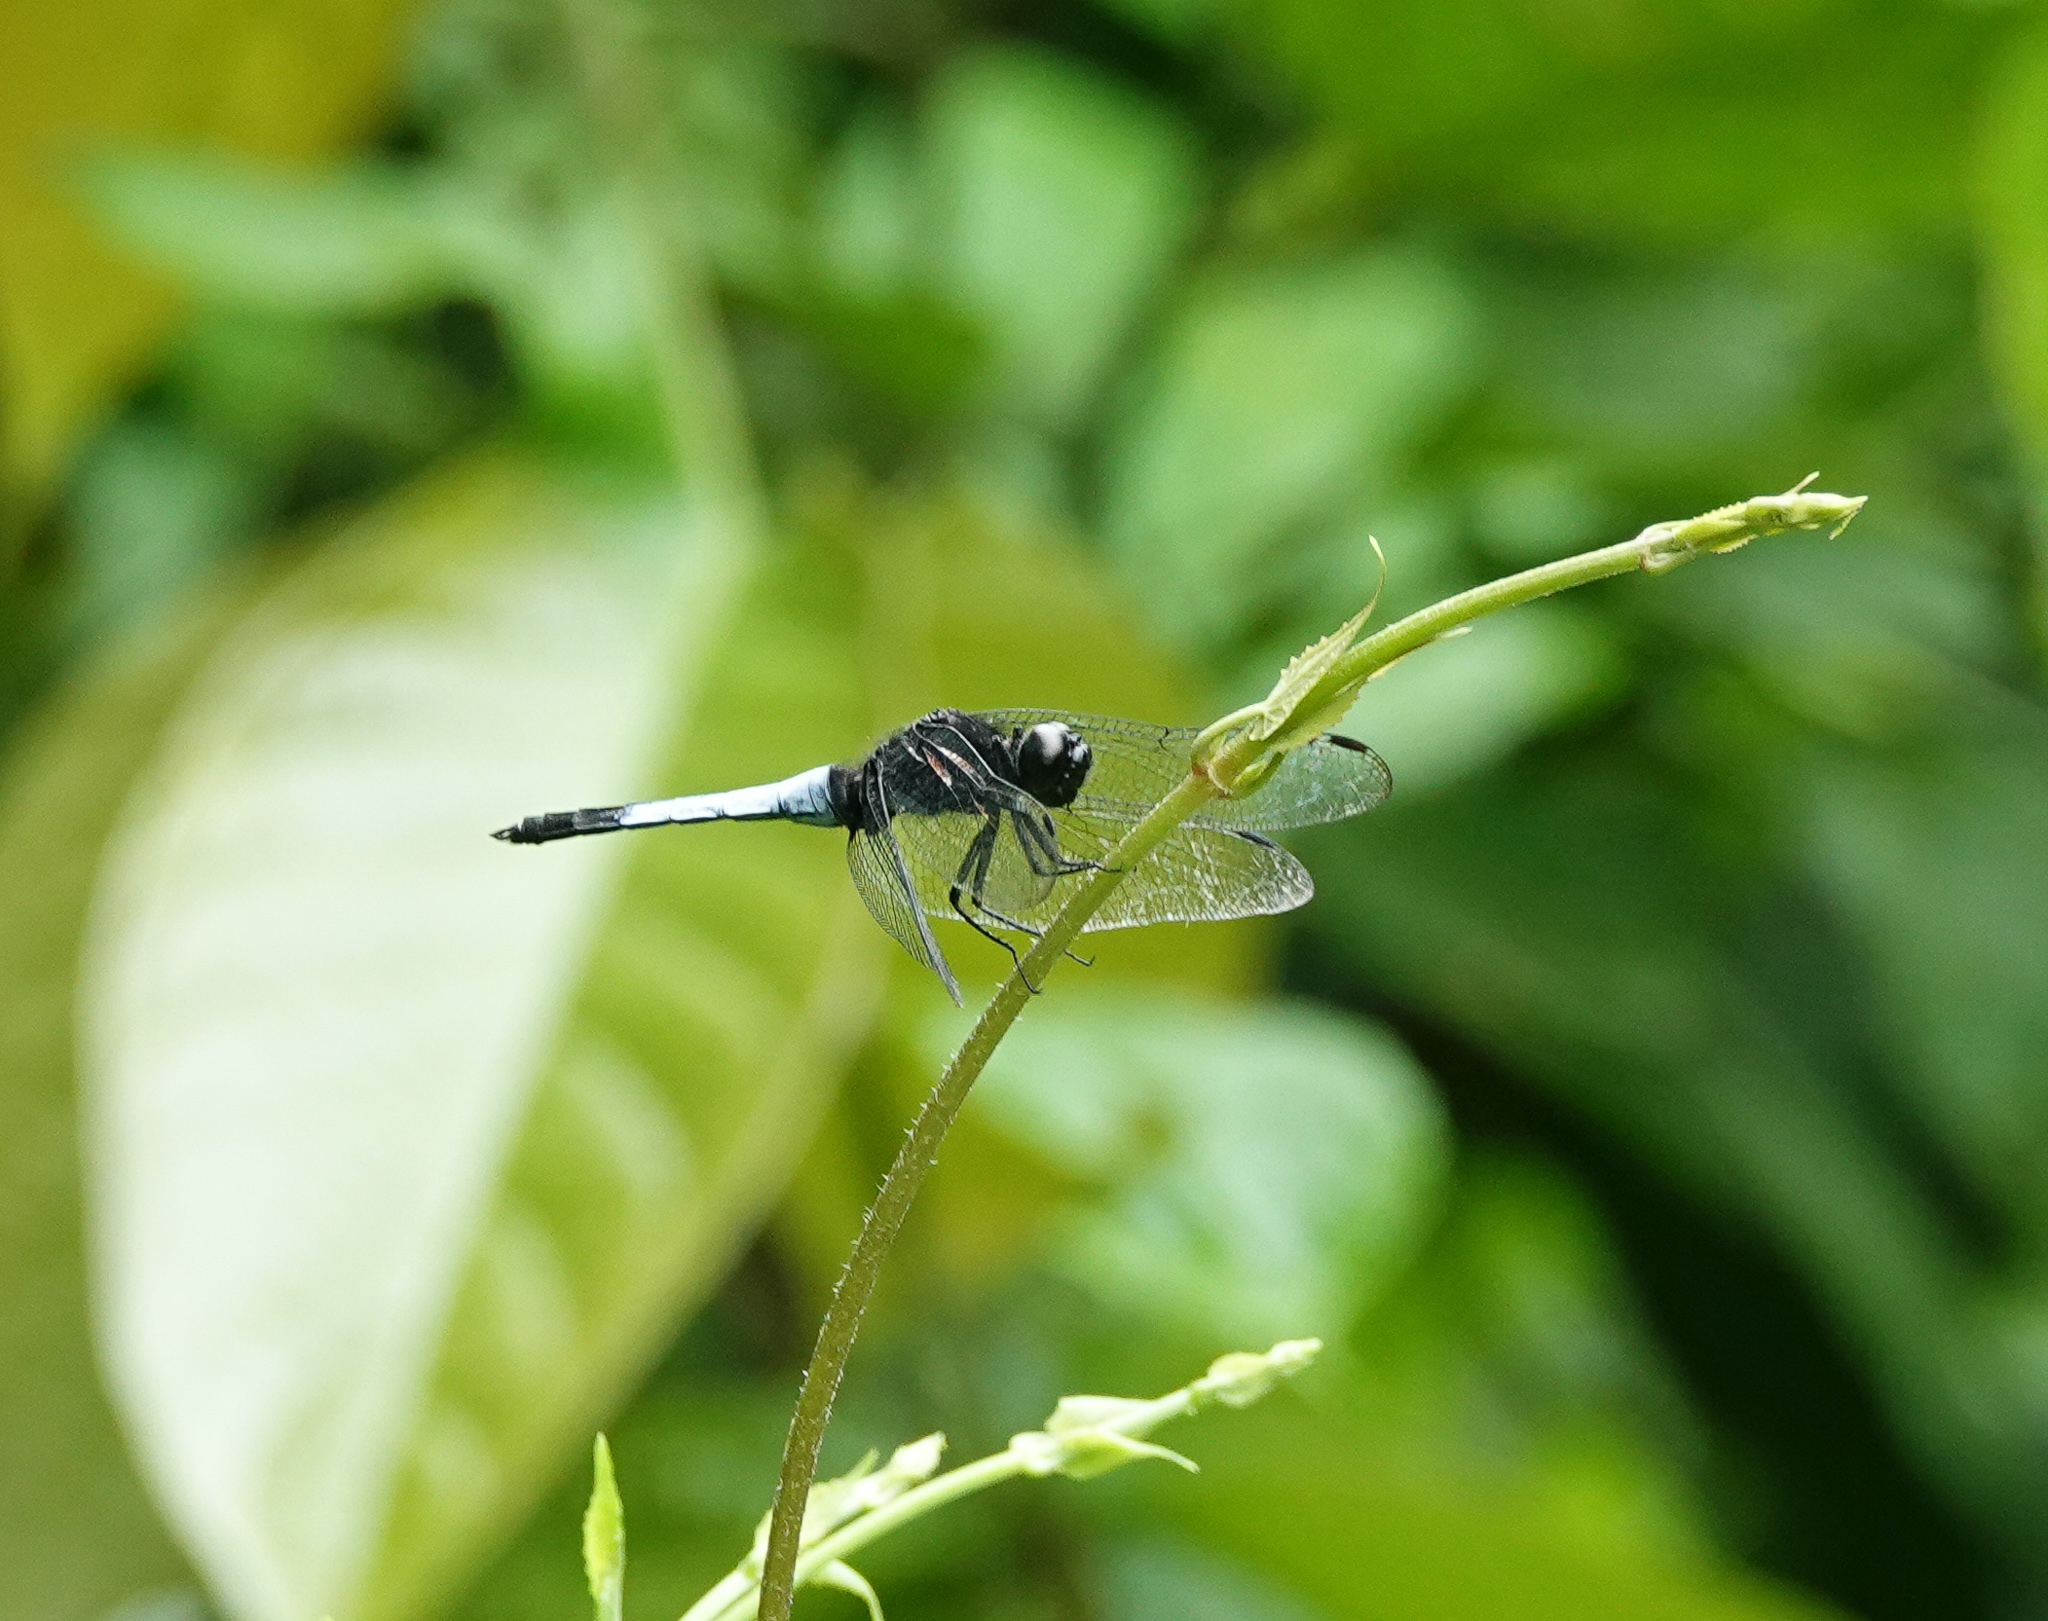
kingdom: Animalia
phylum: Arthropoda
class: Insecta
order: Odonata
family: Libellulidae
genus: Orthetrum
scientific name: Orthetrum triangulare
